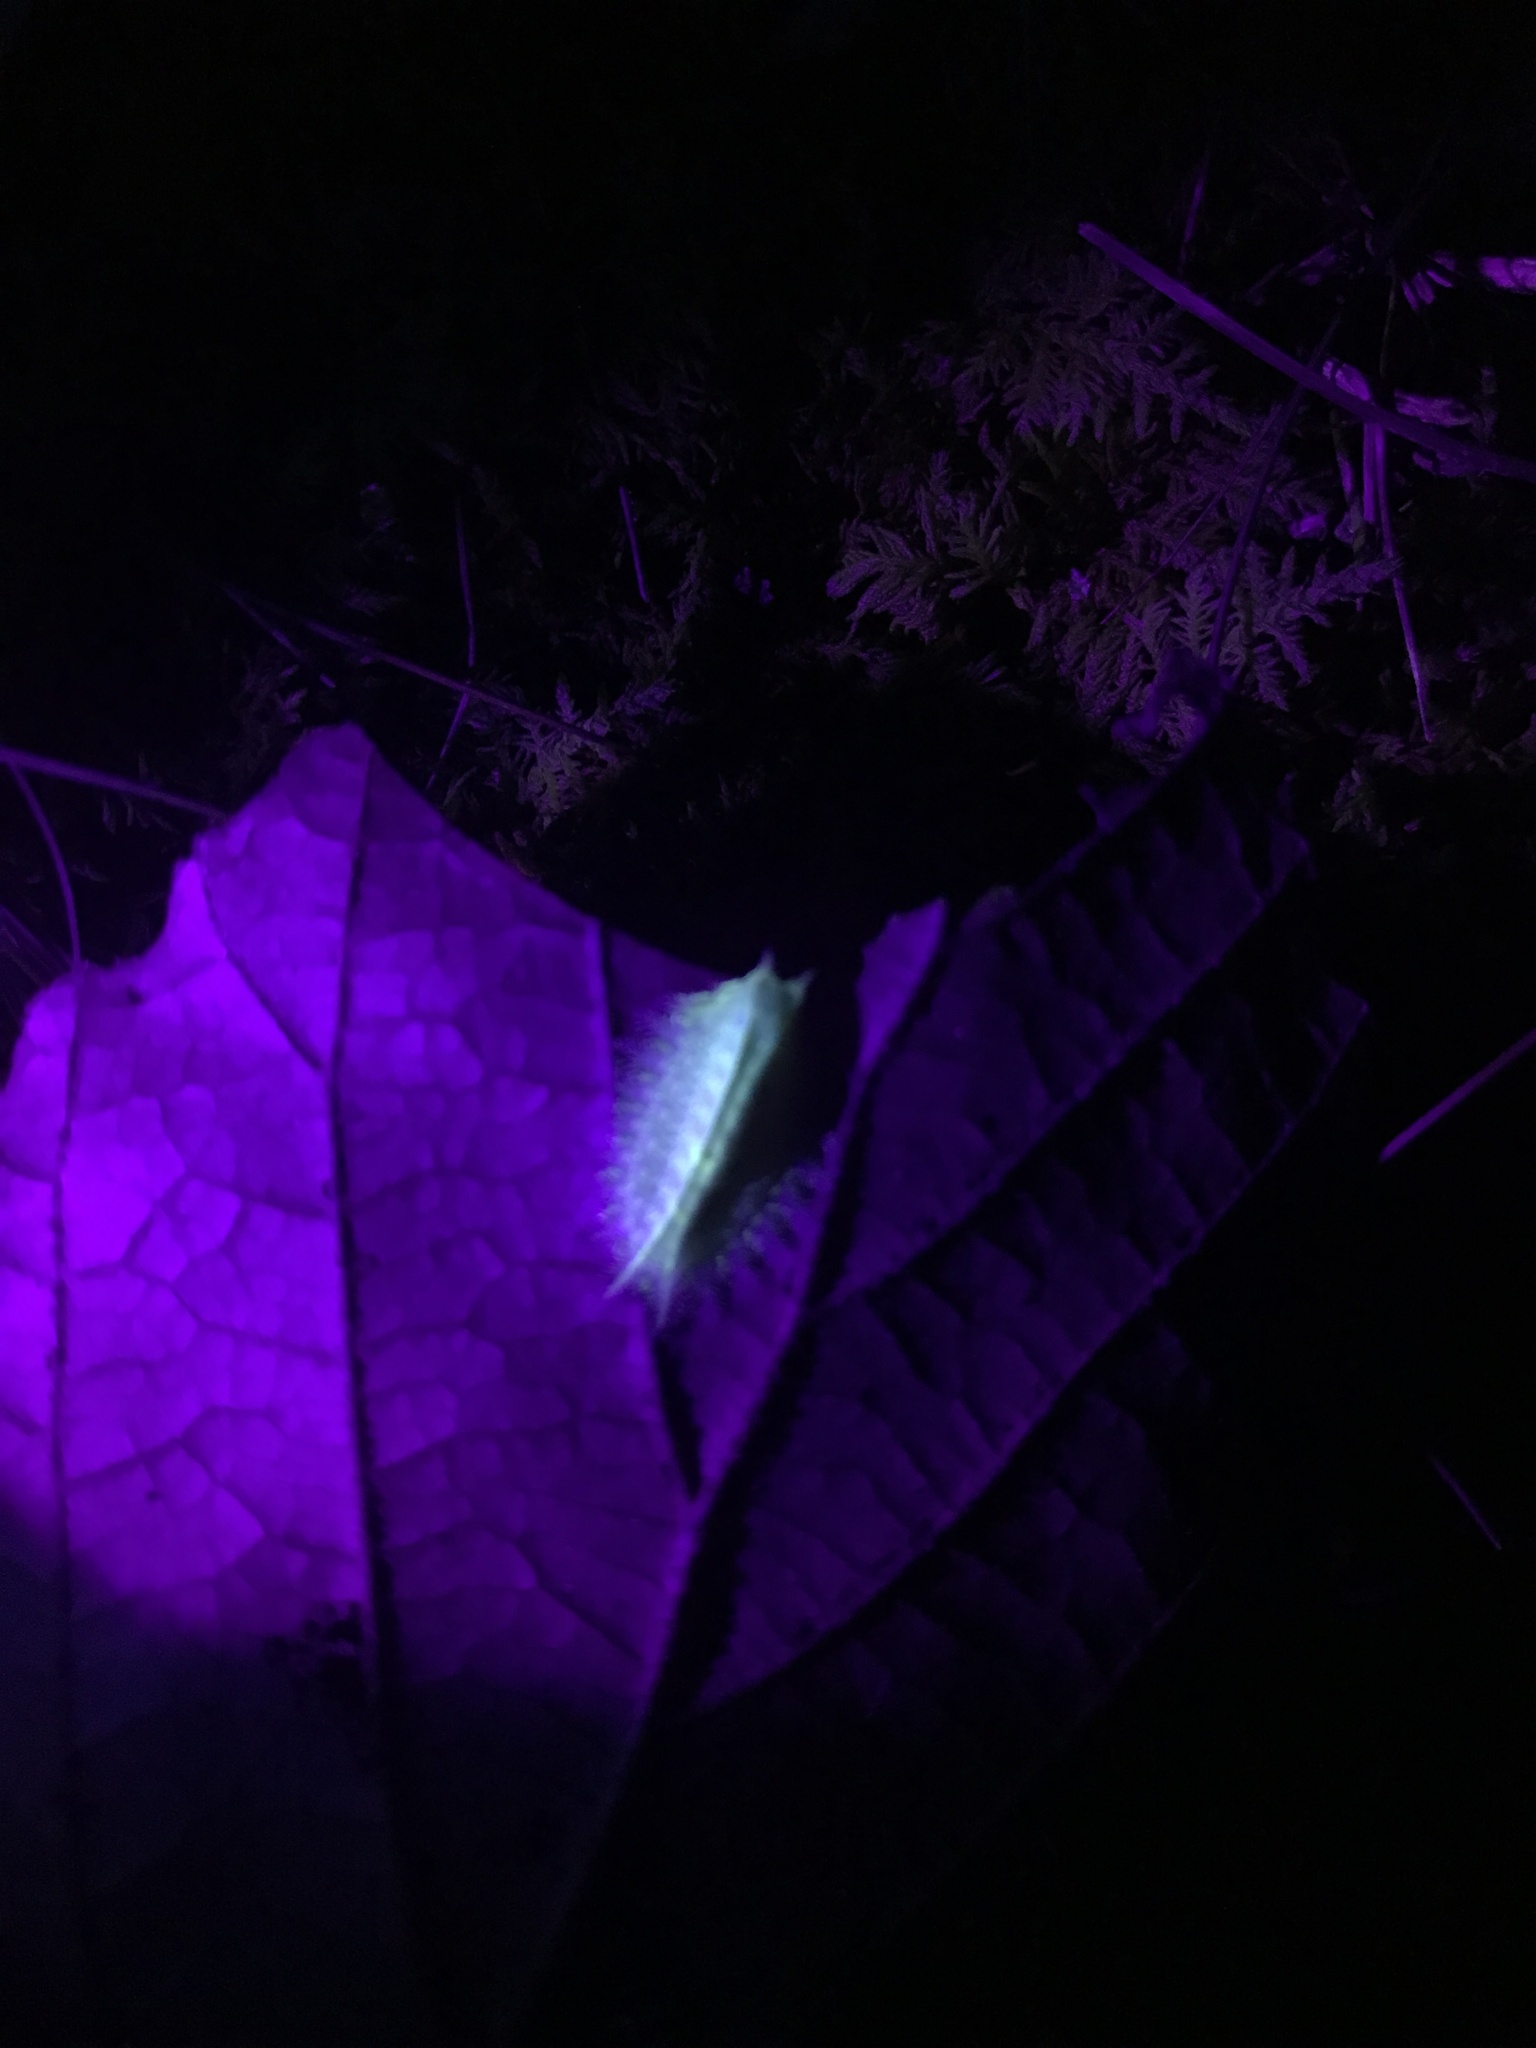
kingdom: Animalia
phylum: Arthropoda
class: Insecta
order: Lepidoptera
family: Limacodidae
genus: Isa
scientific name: Isa textula
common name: Crowned slug moth
